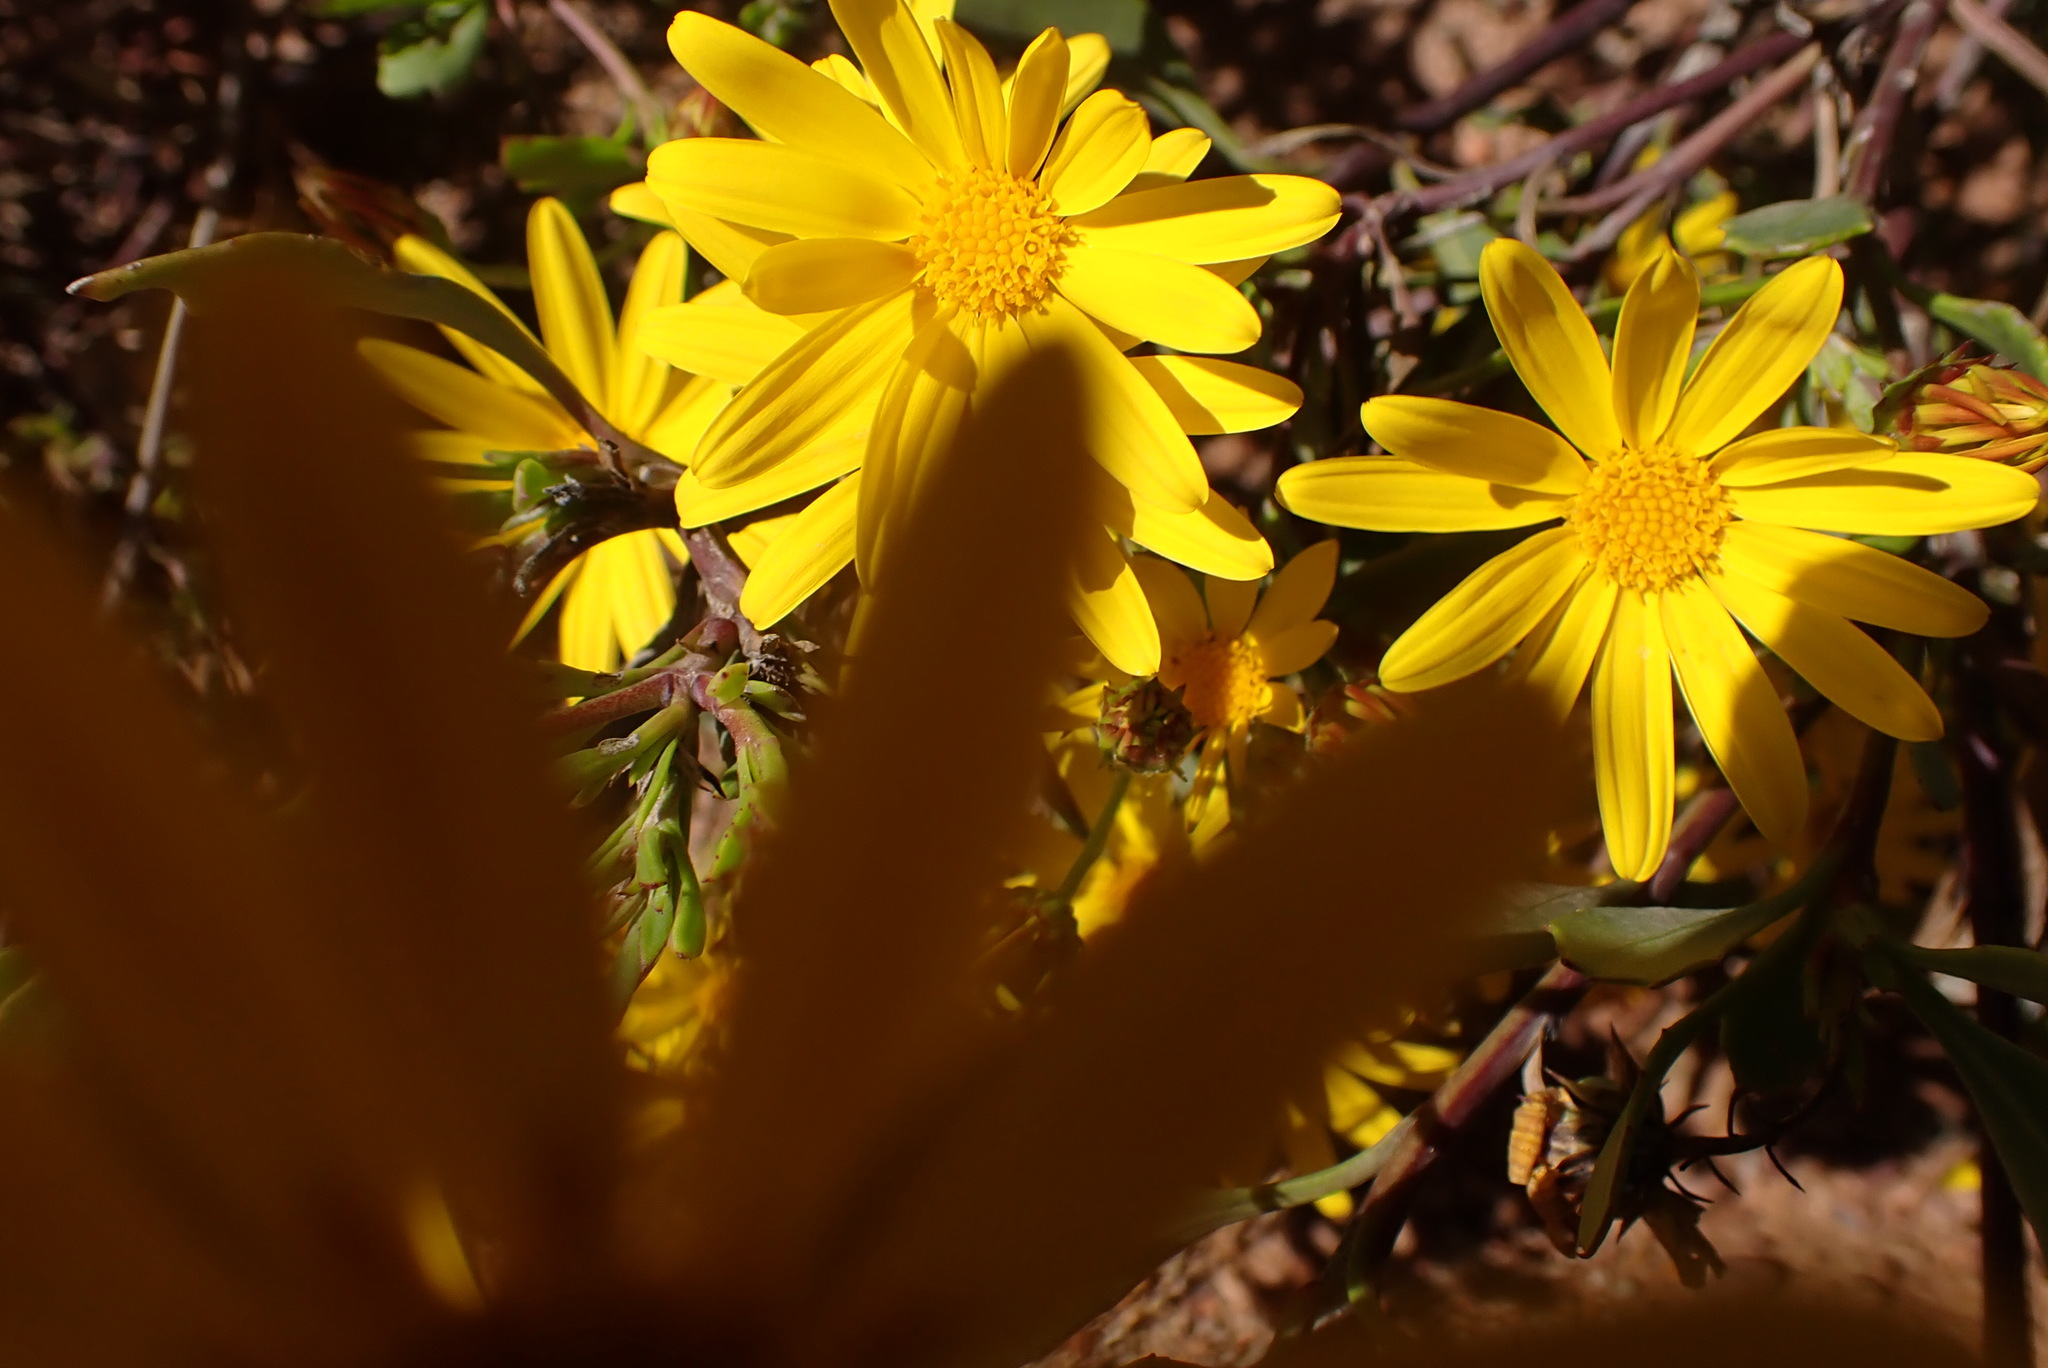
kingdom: Plantae
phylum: Tracheophyta
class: Magnoliopsida
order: Asterales
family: Asteraceae
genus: Osteospermum
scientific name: Osteospermum moniliferum
